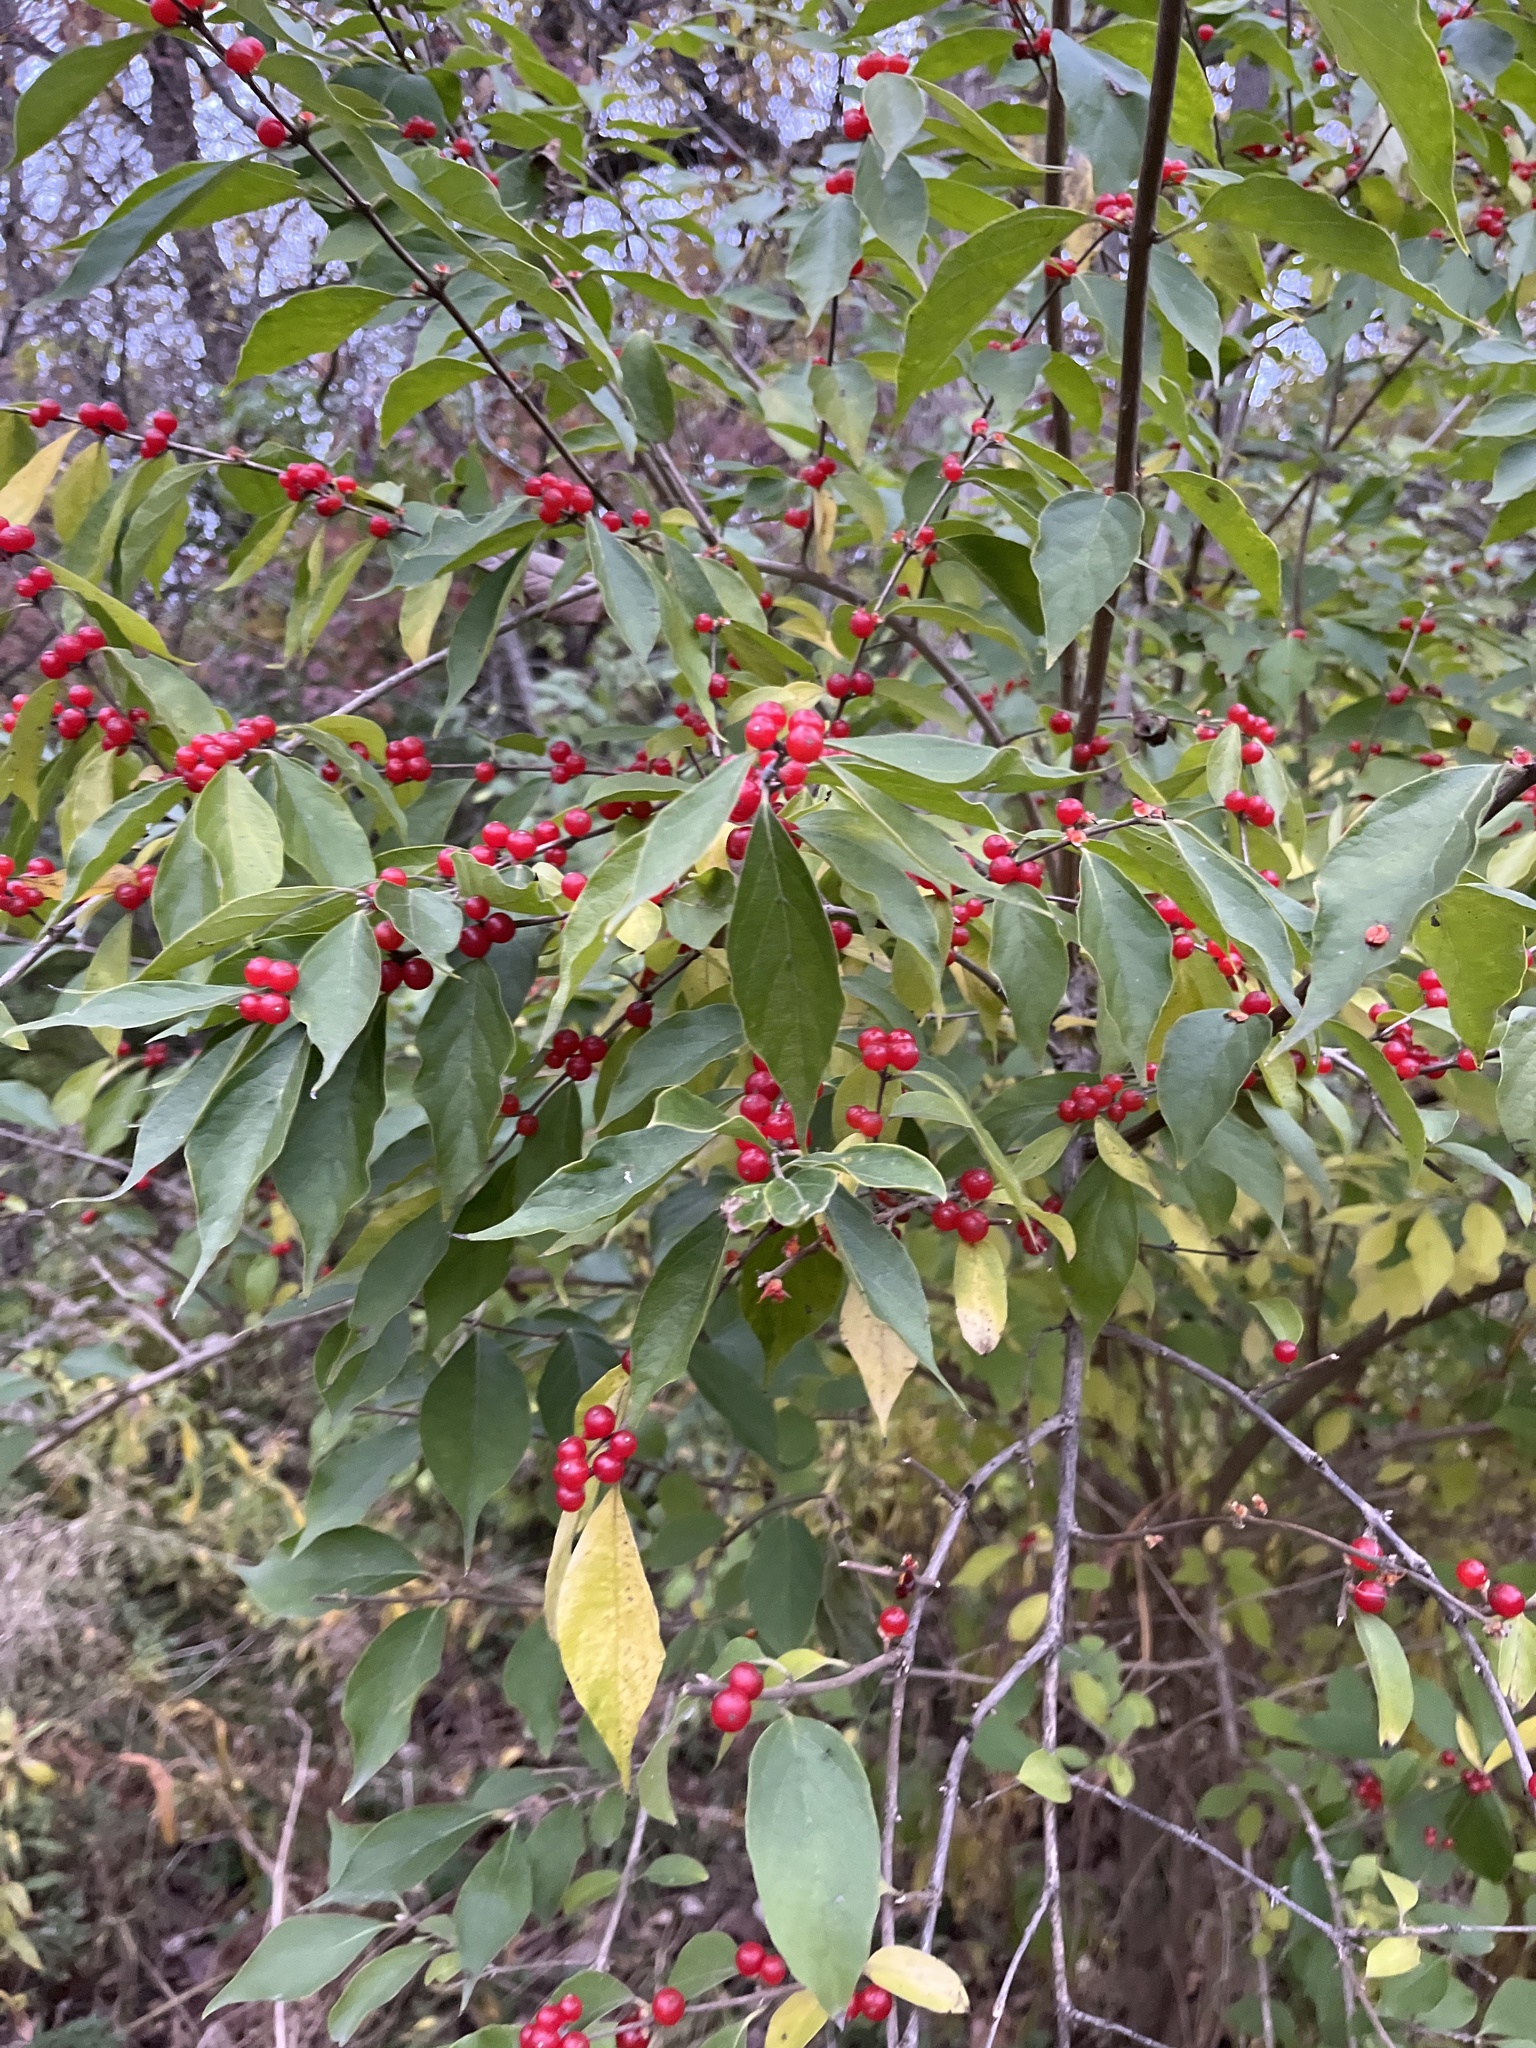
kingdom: Plantae
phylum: Tracheophyta
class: Magnoliopsida
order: Dipsacales
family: Caprifoliaceae
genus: Lonicera
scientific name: Lonicera maackii
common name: Amur honeysuckle
